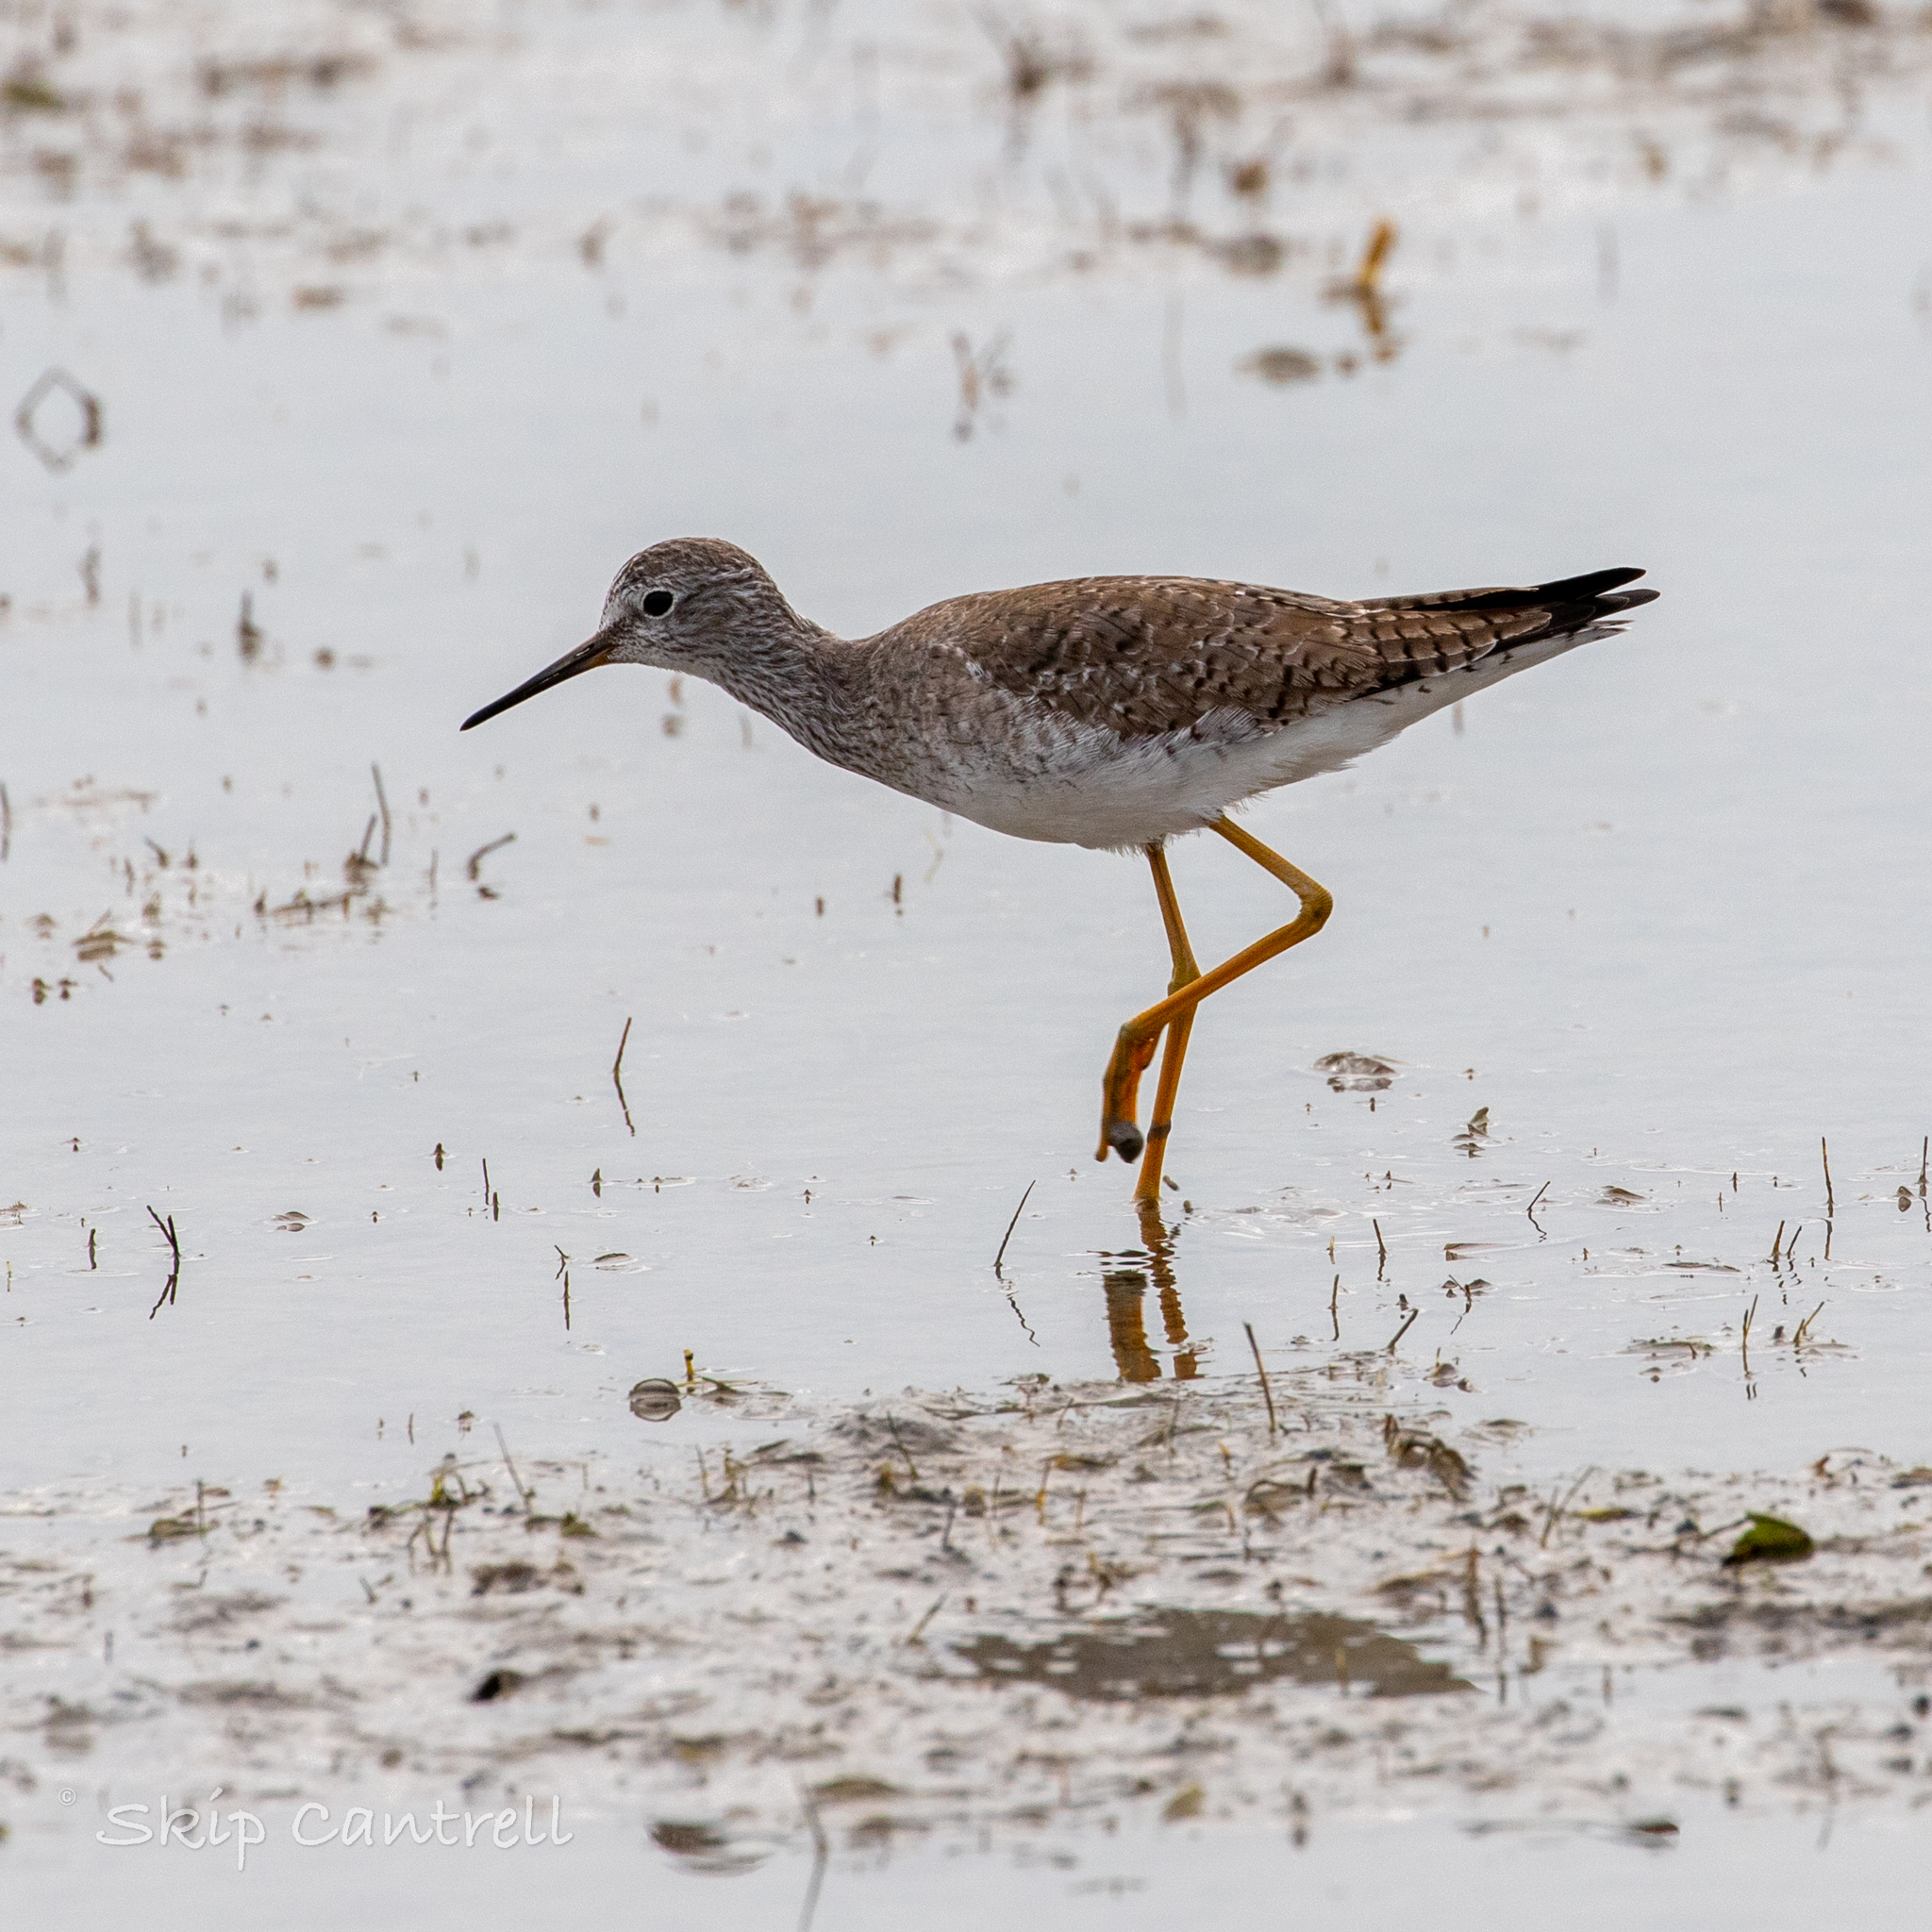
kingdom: Animalia
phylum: Chordata
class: Aves
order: Charadriiformes
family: Scolopacidae
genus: Tringa
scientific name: Tringa flavipes
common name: Lesser yellowlegs
